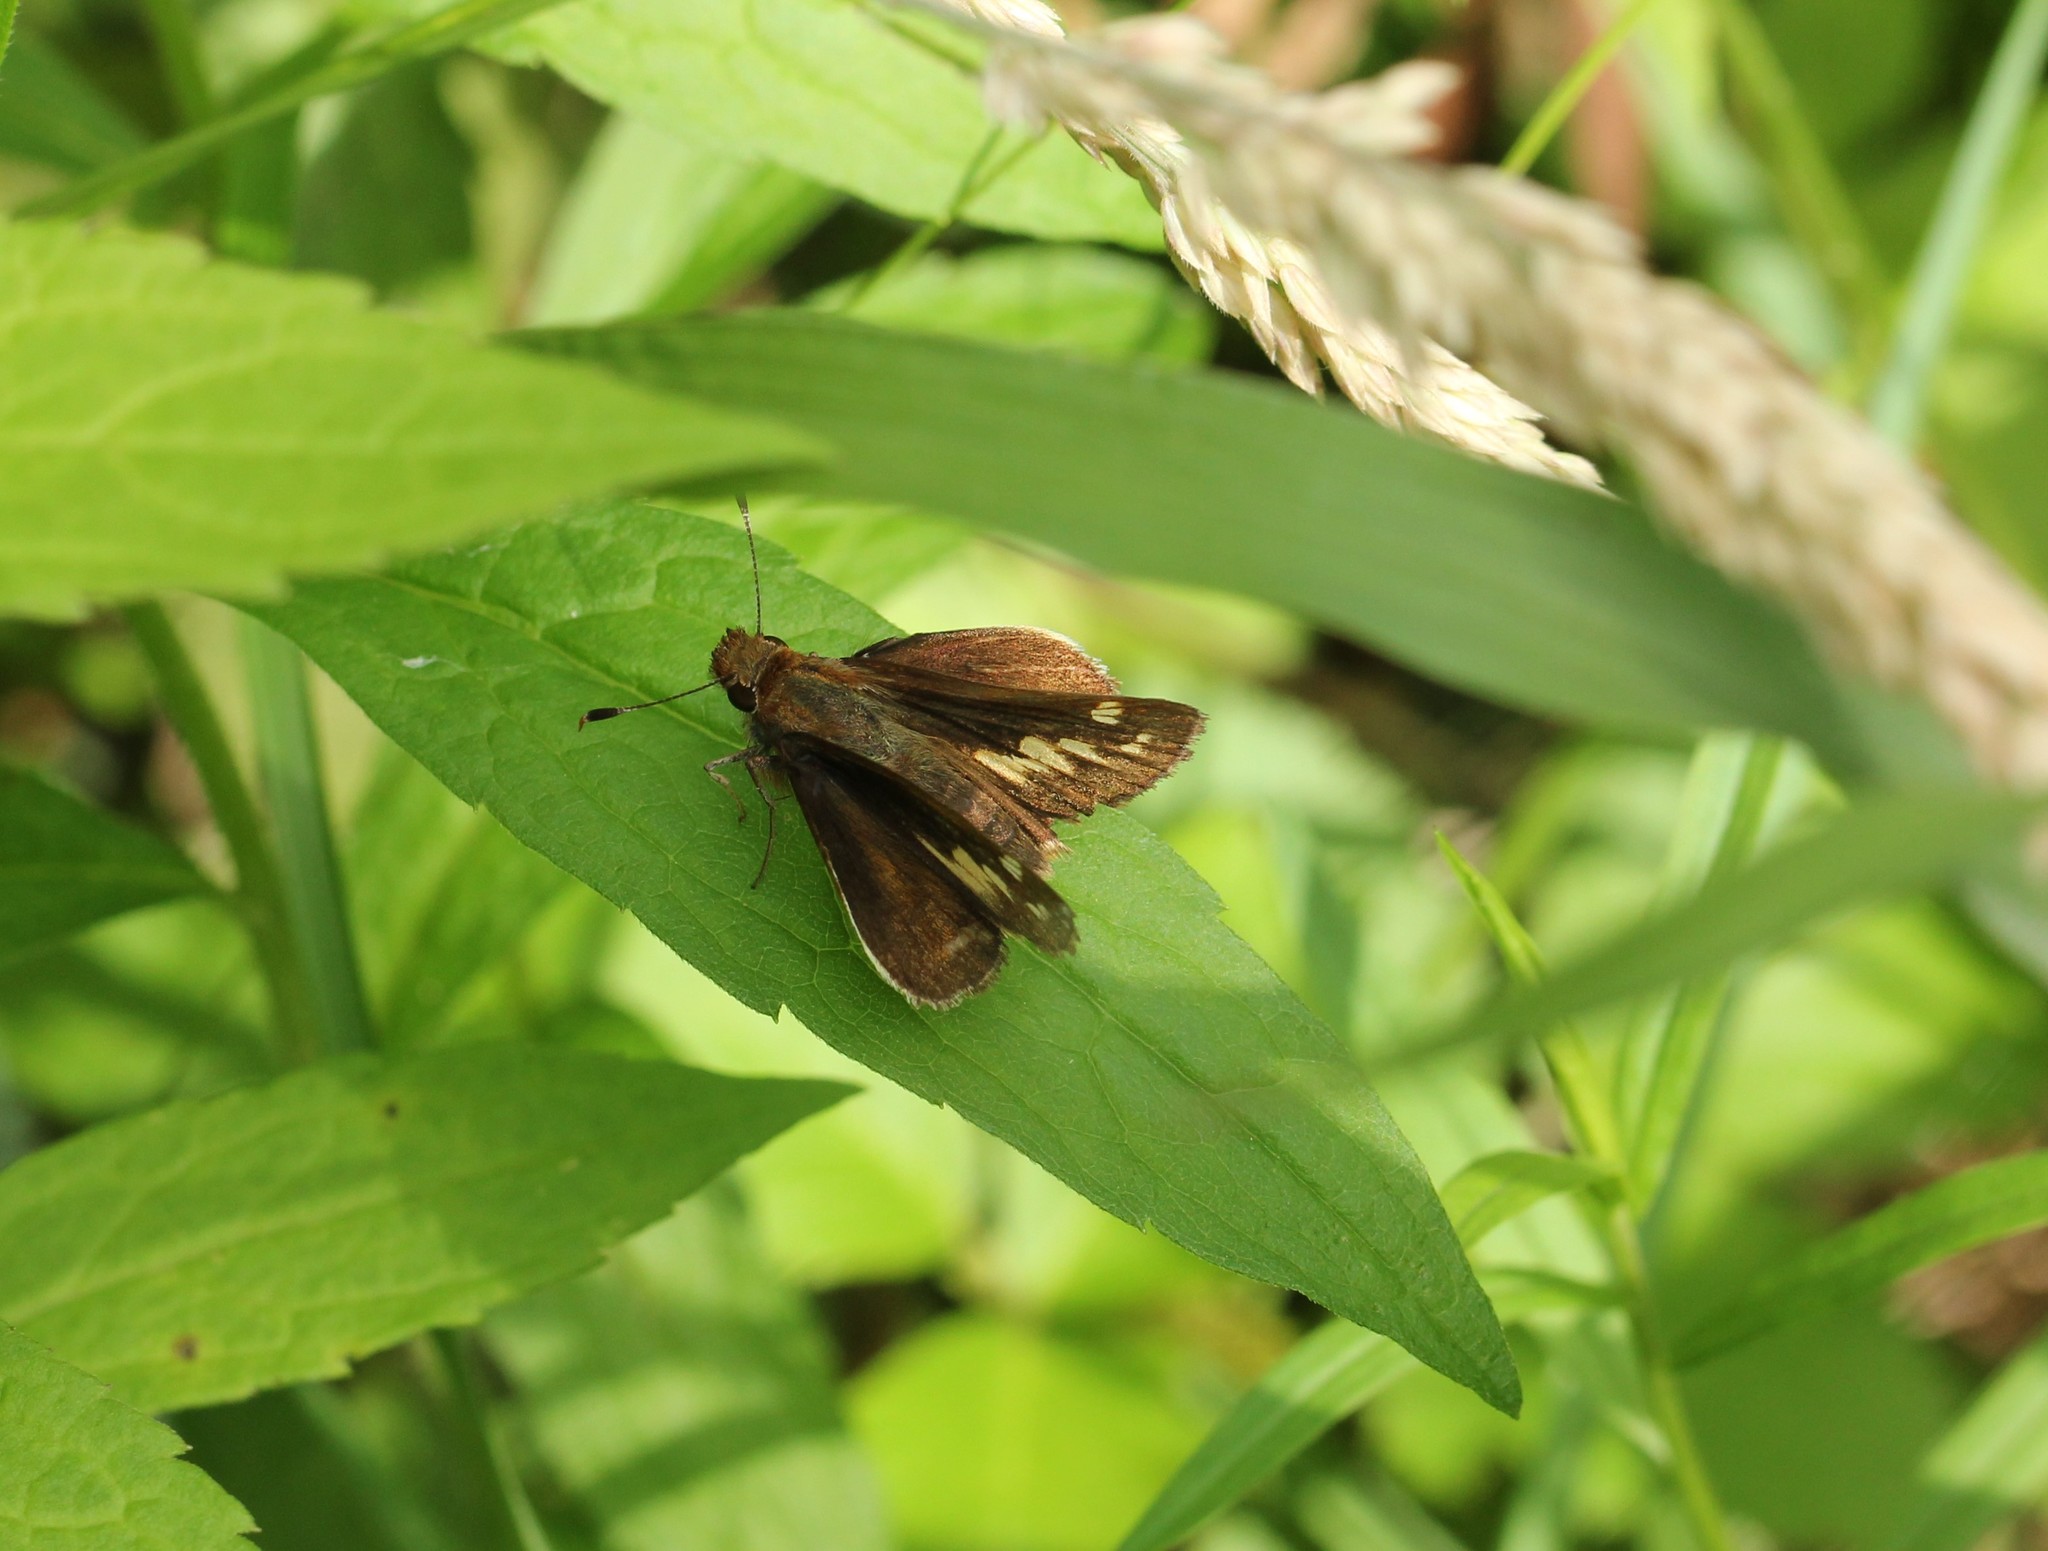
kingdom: Animalia
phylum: Arthropoda
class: Insecta
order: Lepidoptera
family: Hesperiidae
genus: Lon
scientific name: Lon zabulon
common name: Zabulon skipper
